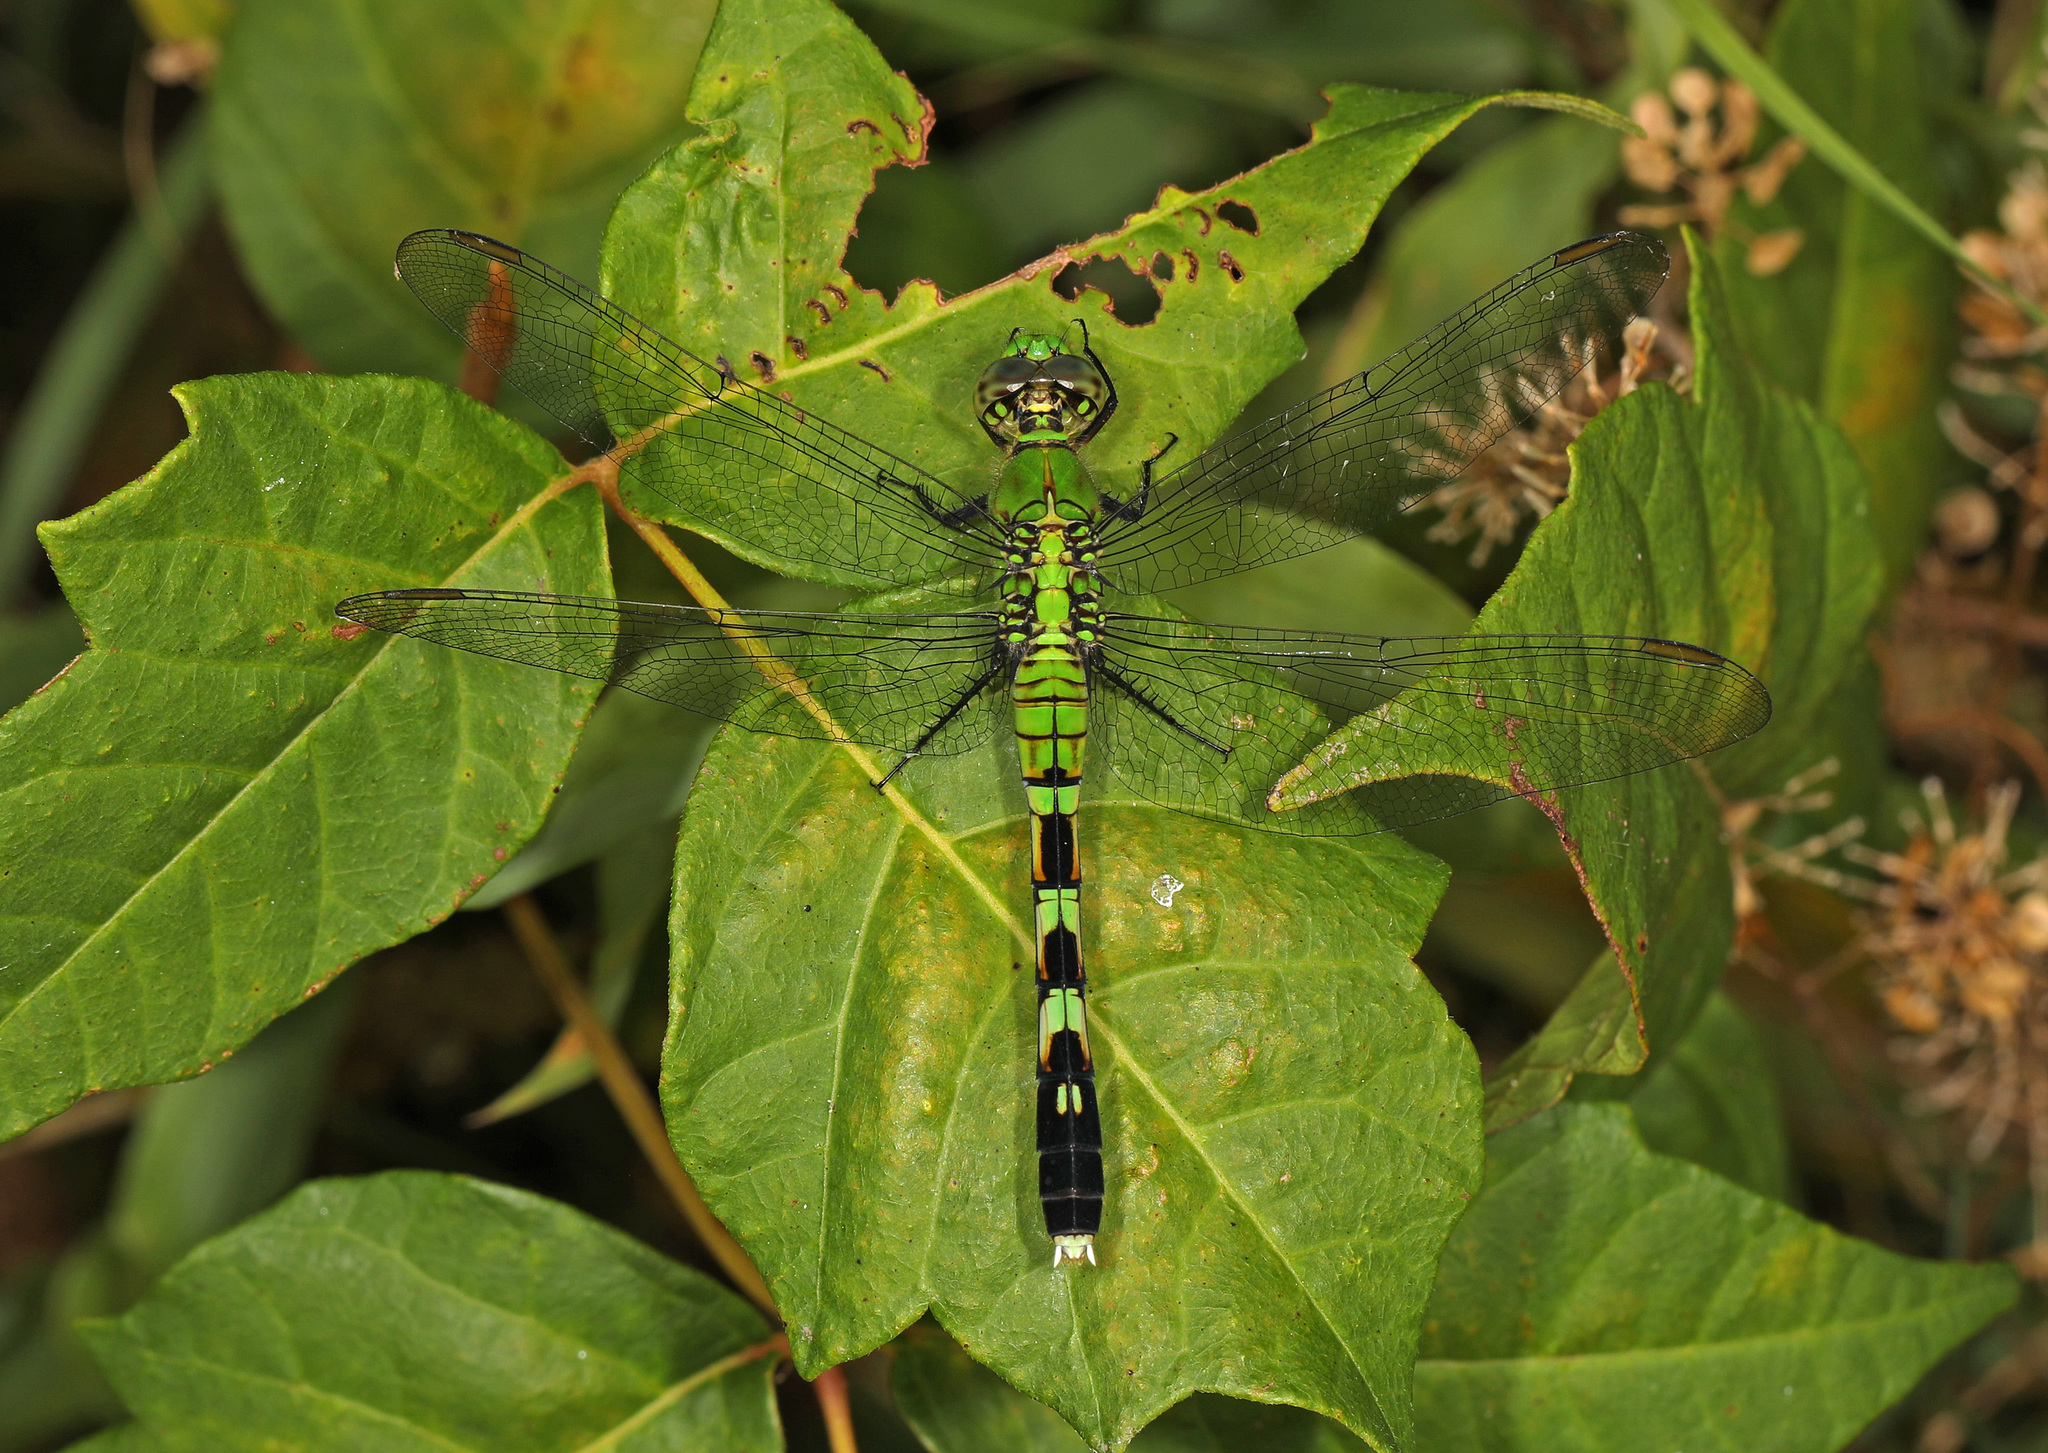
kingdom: Animalia
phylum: Arthropoda
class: Insecta
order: Odonata
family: Libellulidae
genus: Erythemis
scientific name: Erythemis simplicicollis
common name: Eastern pondhawk
